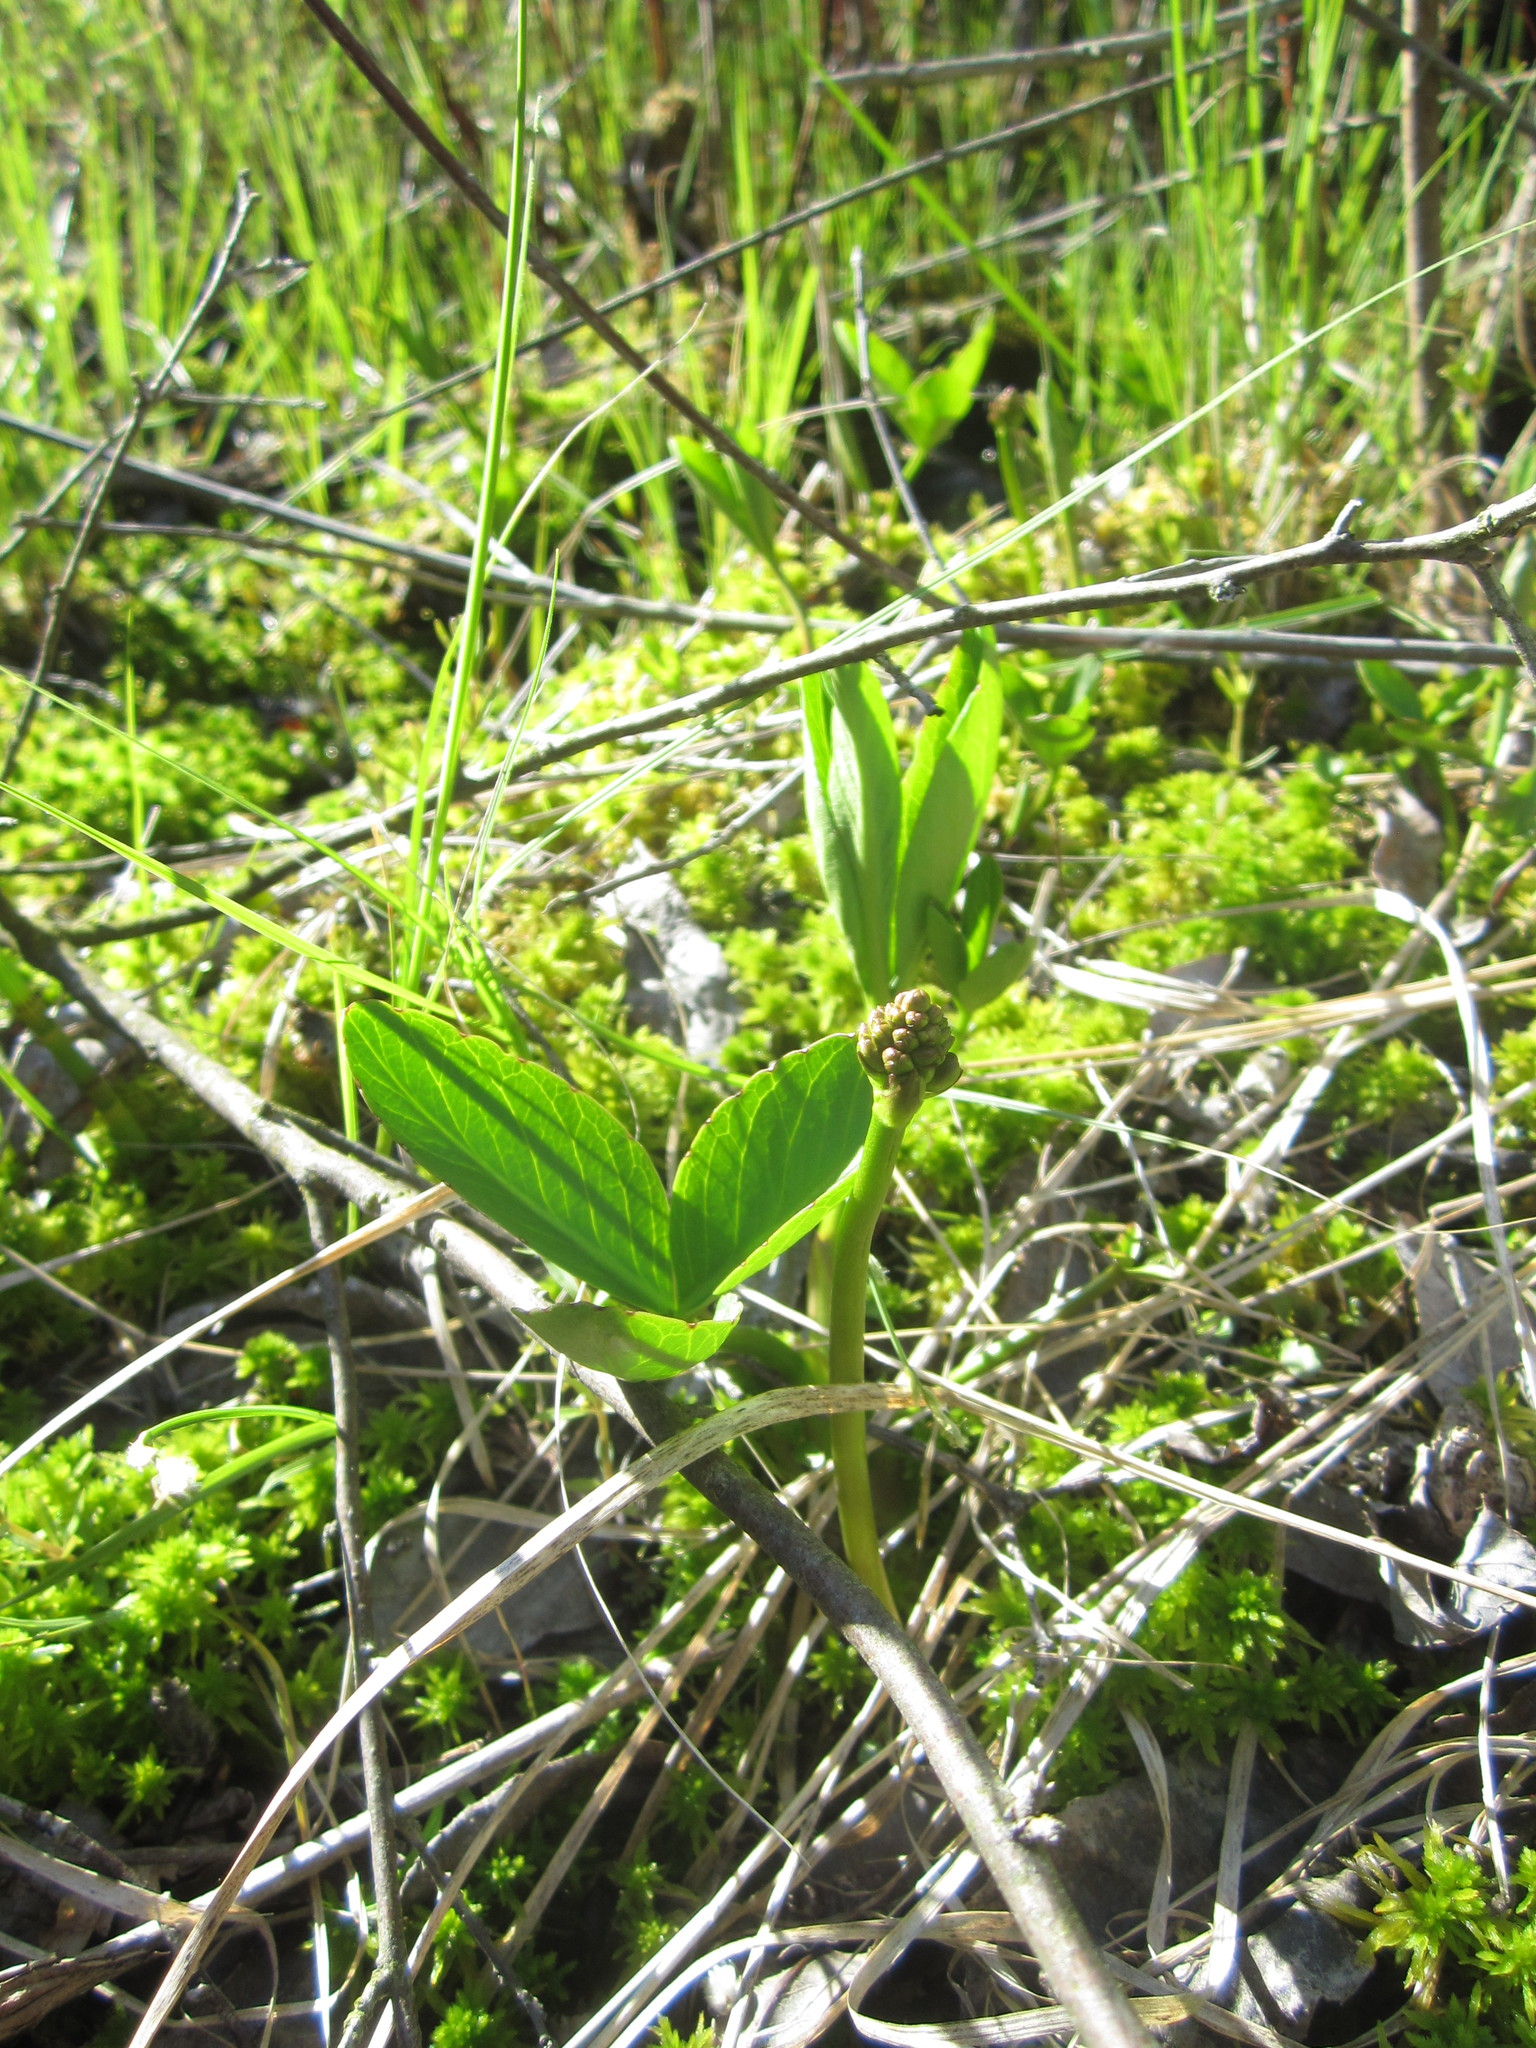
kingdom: Plantae
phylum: Tracheophyta
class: Magnoliopsida
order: Asterales
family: Menyanthaceae
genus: Menyanthes
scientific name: Menyanthes trifoliata
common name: Bogbean
